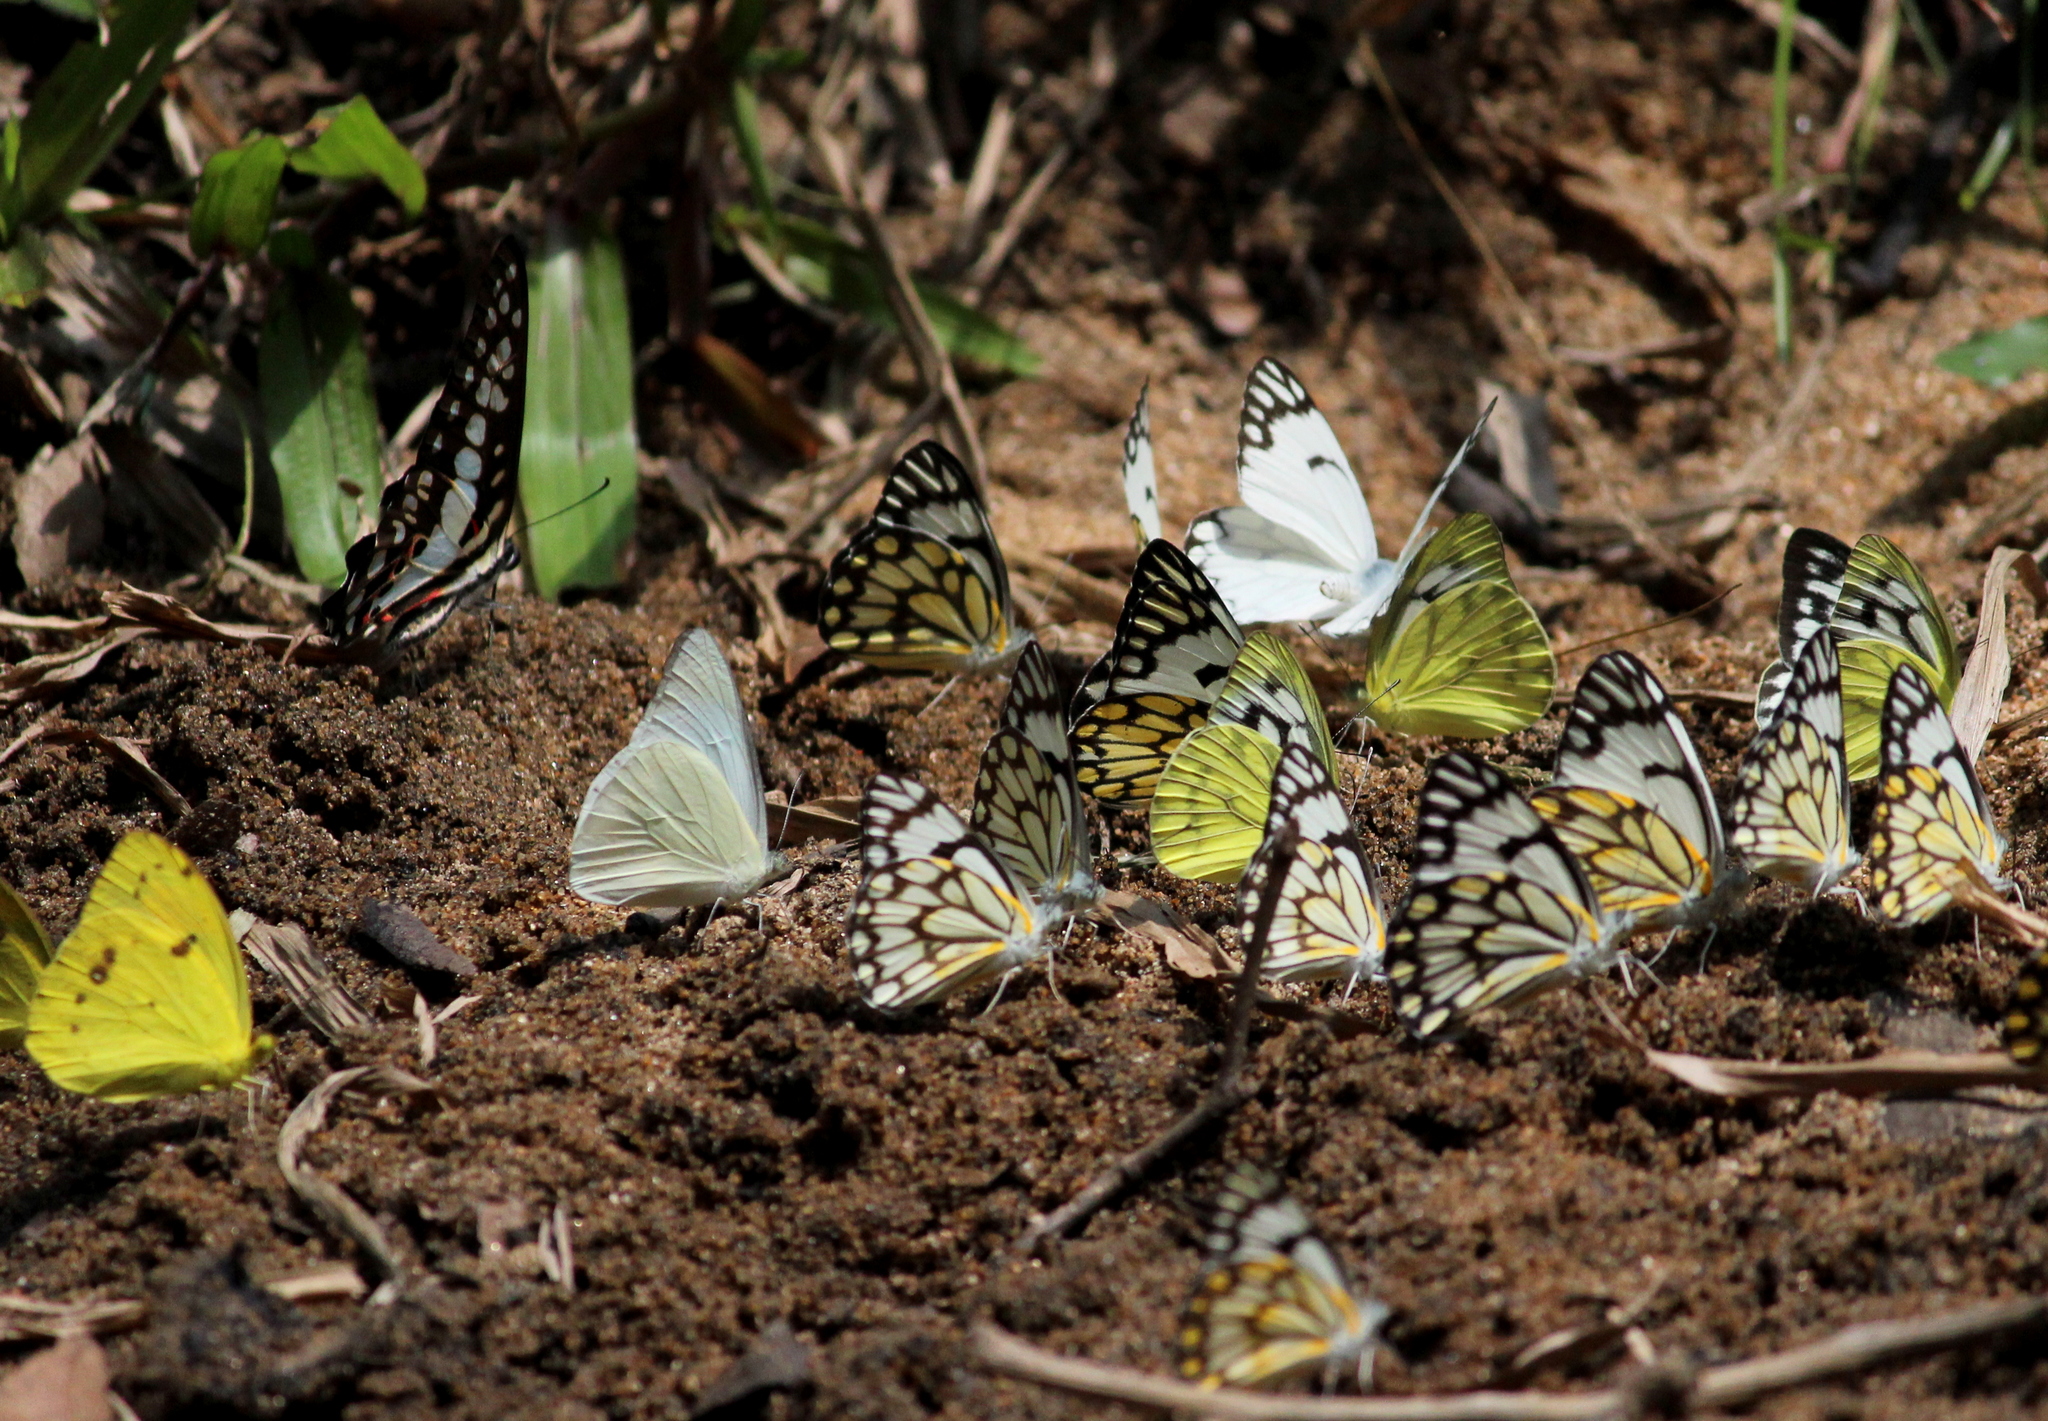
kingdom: Animalia
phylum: Arthropoda
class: Insecta
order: Lepidoptera
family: Pieridae
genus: Belenois
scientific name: Belenois aurota
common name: Brown-veined white
